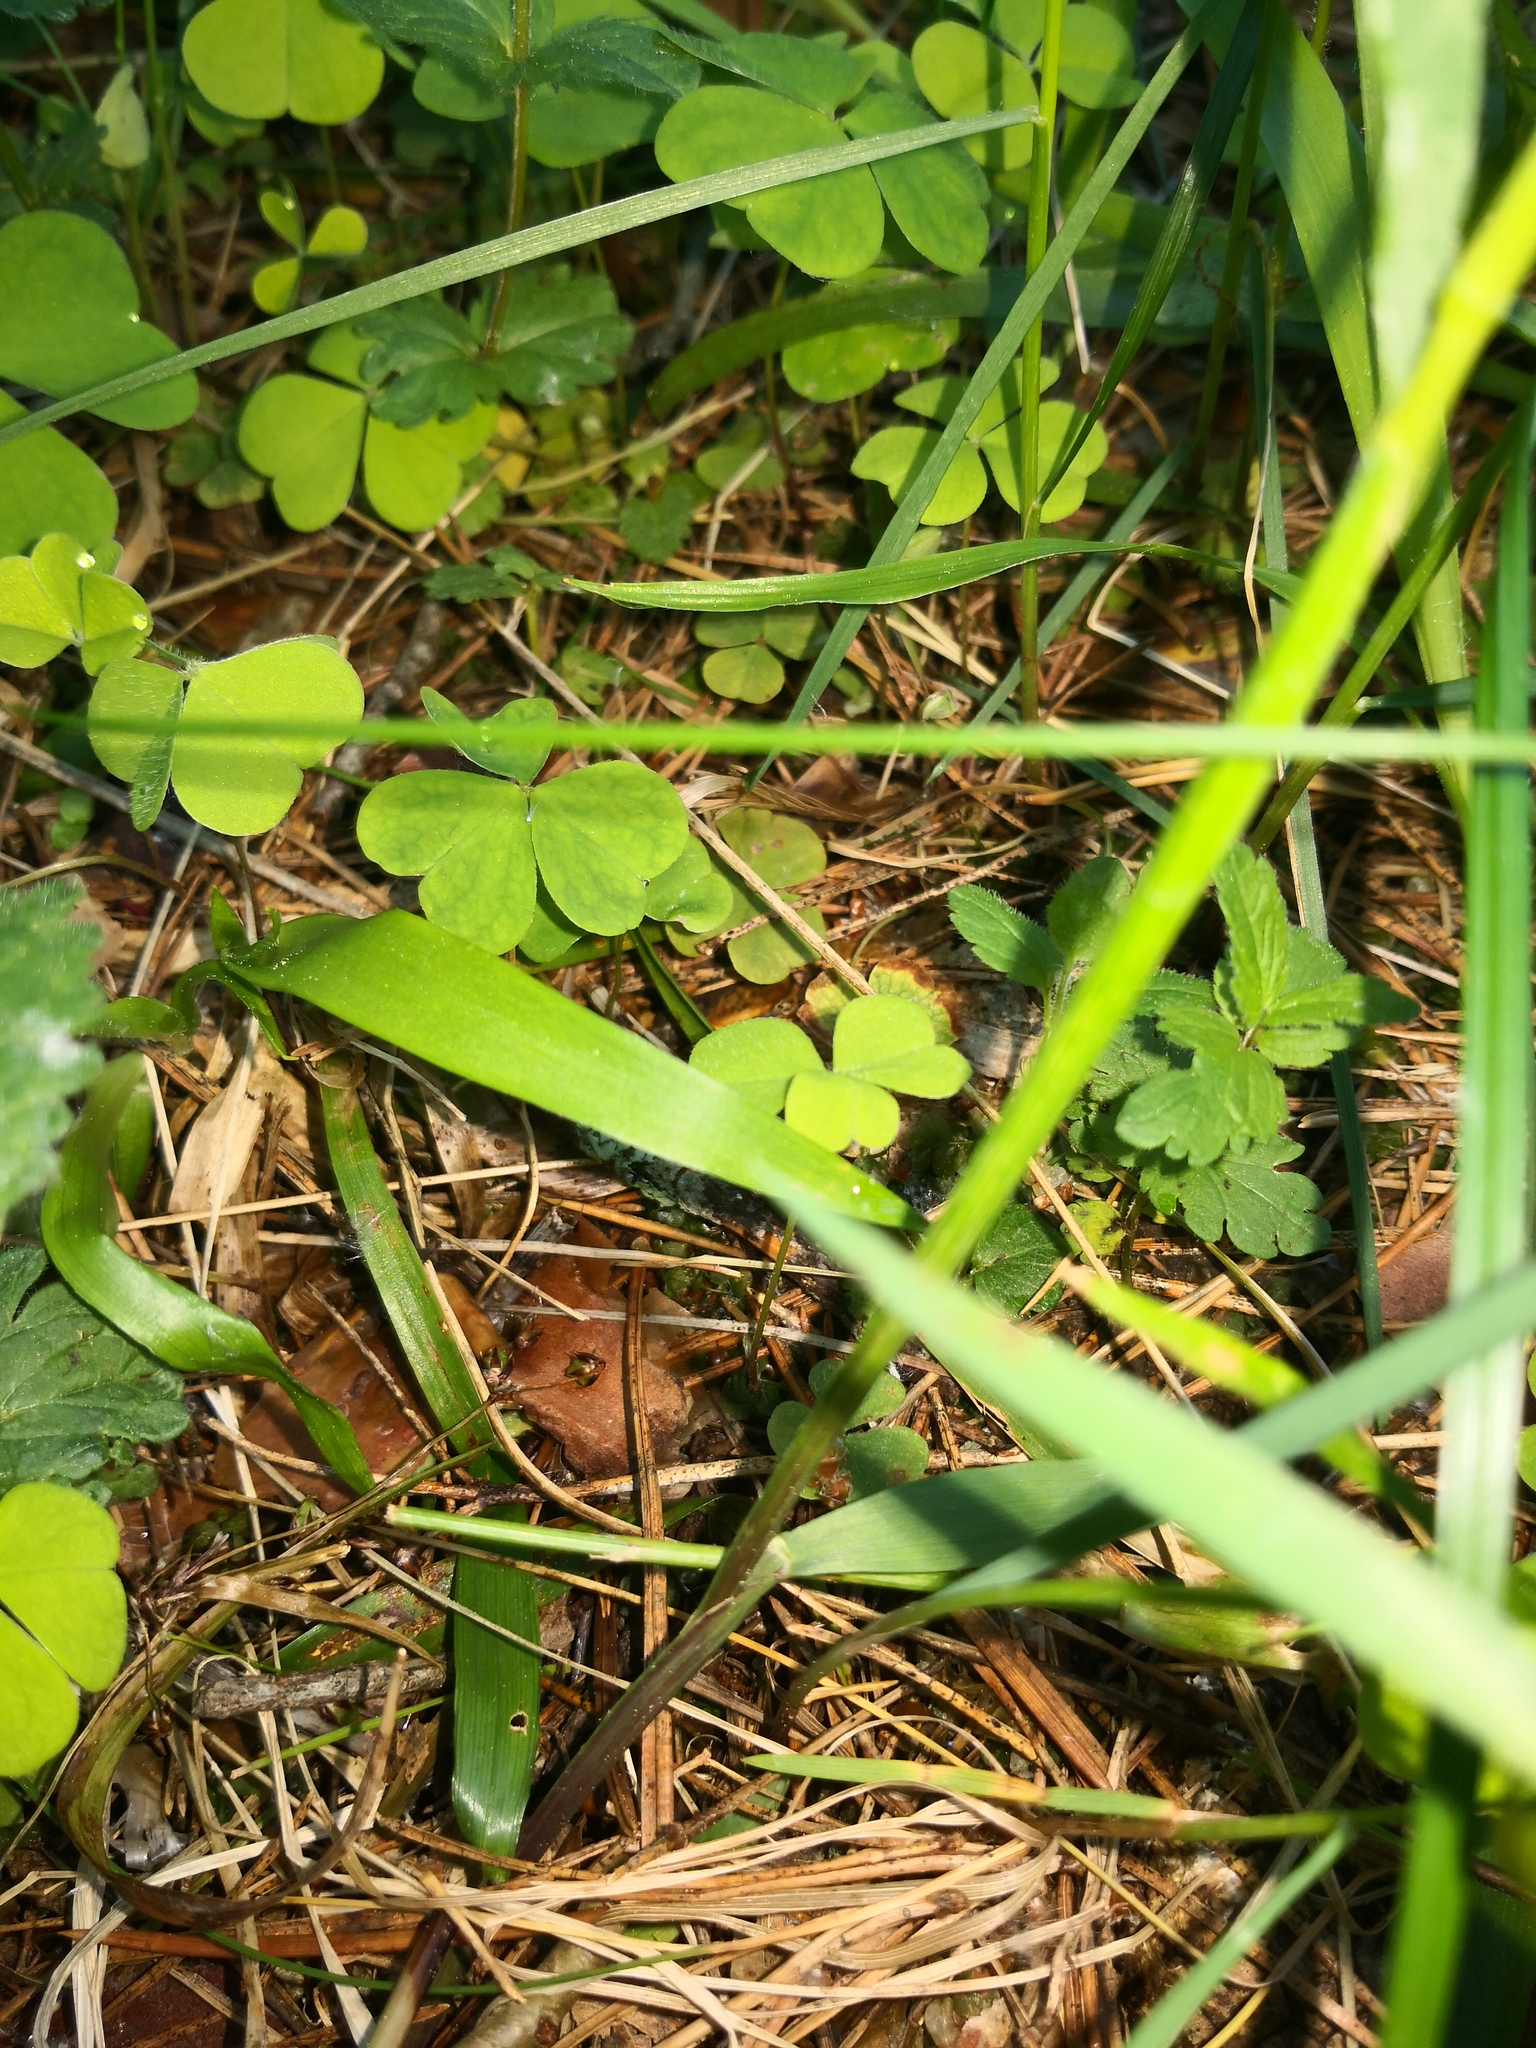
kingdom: Plantae
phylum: Tracheophyta
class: Liliopsida
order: Poales
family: Poaceae
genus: Melica
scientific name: Melica nutans
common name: Mountain melick
